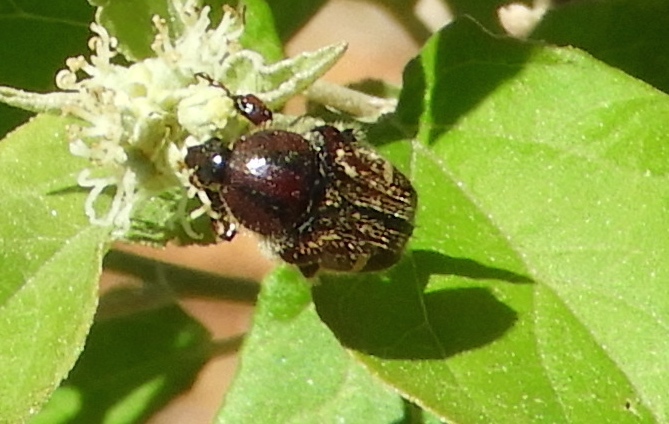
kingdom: Animalia
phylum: Arthropoda
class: Insecta
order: Coleoptera
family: Scarabaeidae
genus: Euphoria
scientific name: Euphoria
